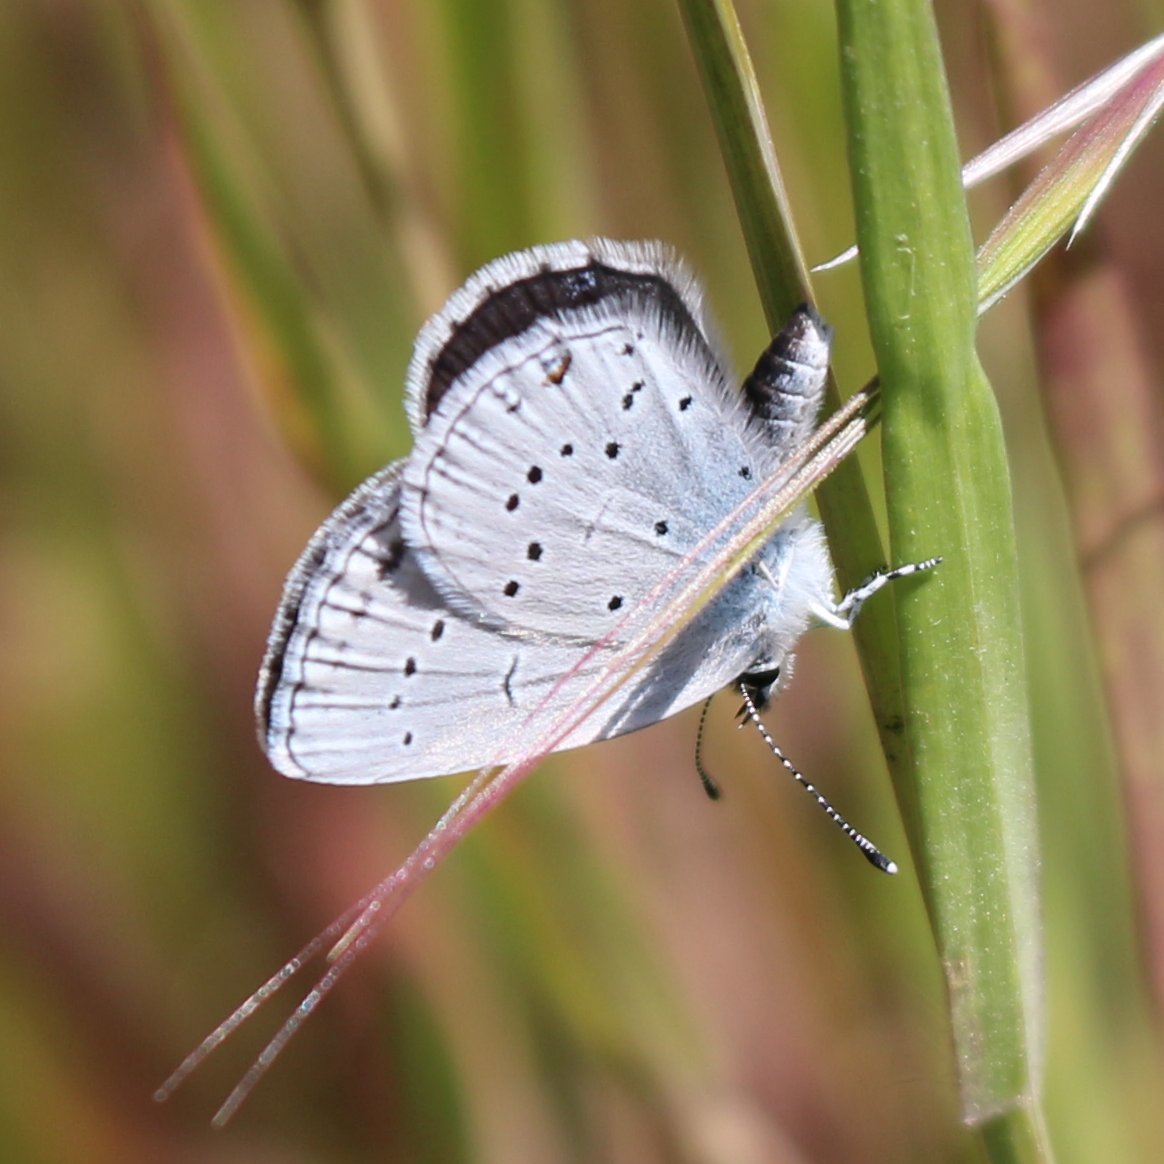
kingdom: Animalia
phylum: Arthropoda
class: Insecta
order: Lepidoptera
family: Lycaenidae
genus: Elkalyce
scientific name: Elkalyce alcetas
